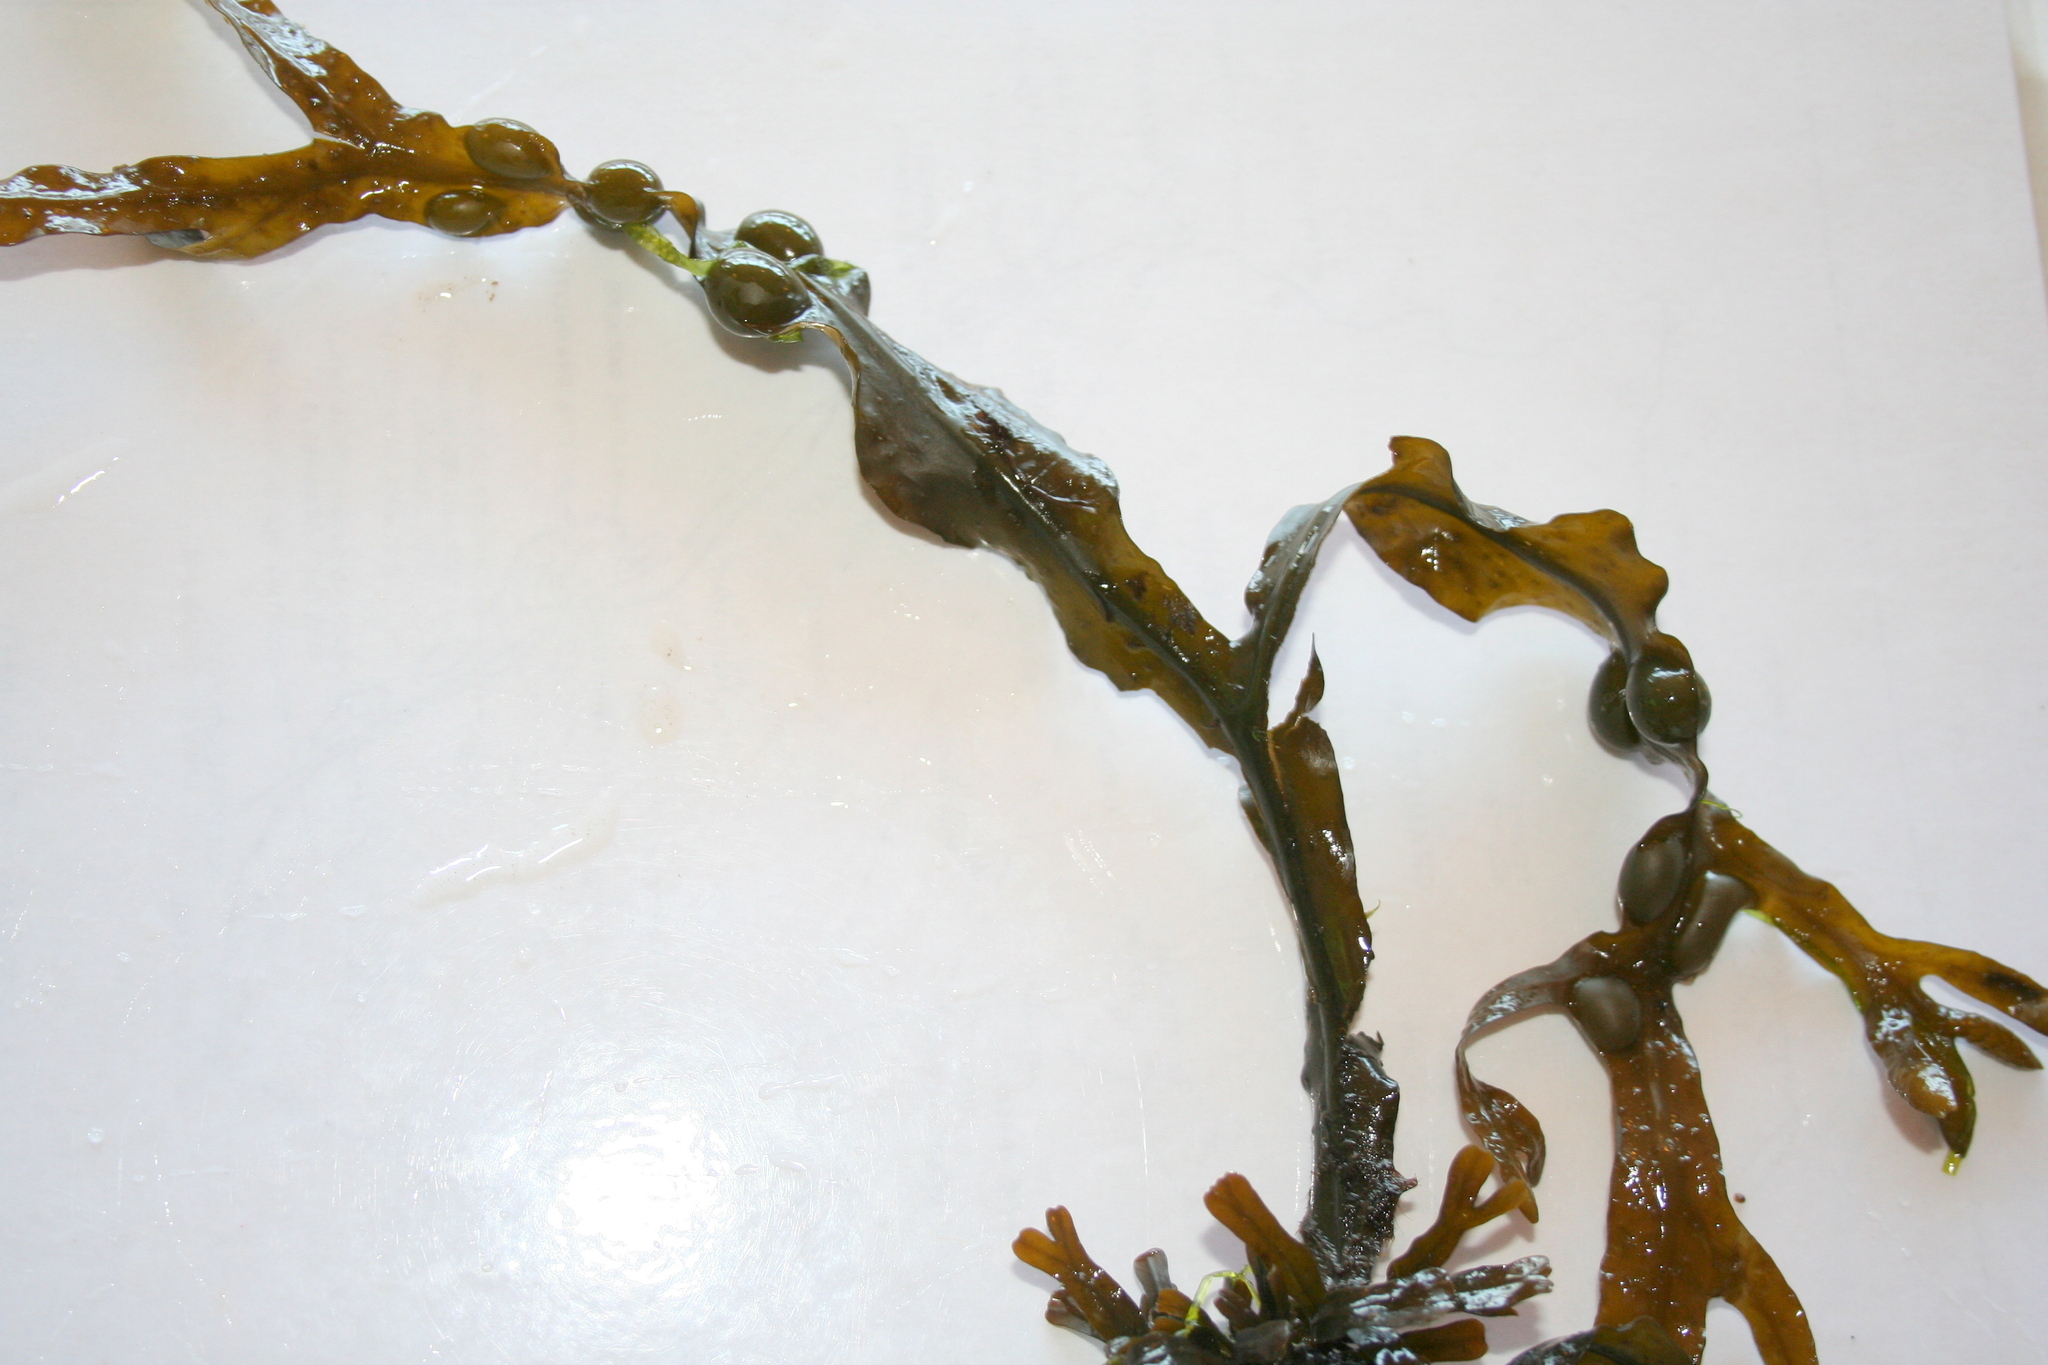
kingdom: Chromista
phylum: Ochrophyta
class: Phaeophyceae
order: Fucales
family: Fucaceae
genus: Fucus
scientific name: Fucus vesiculosus
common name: Bladder wrack
